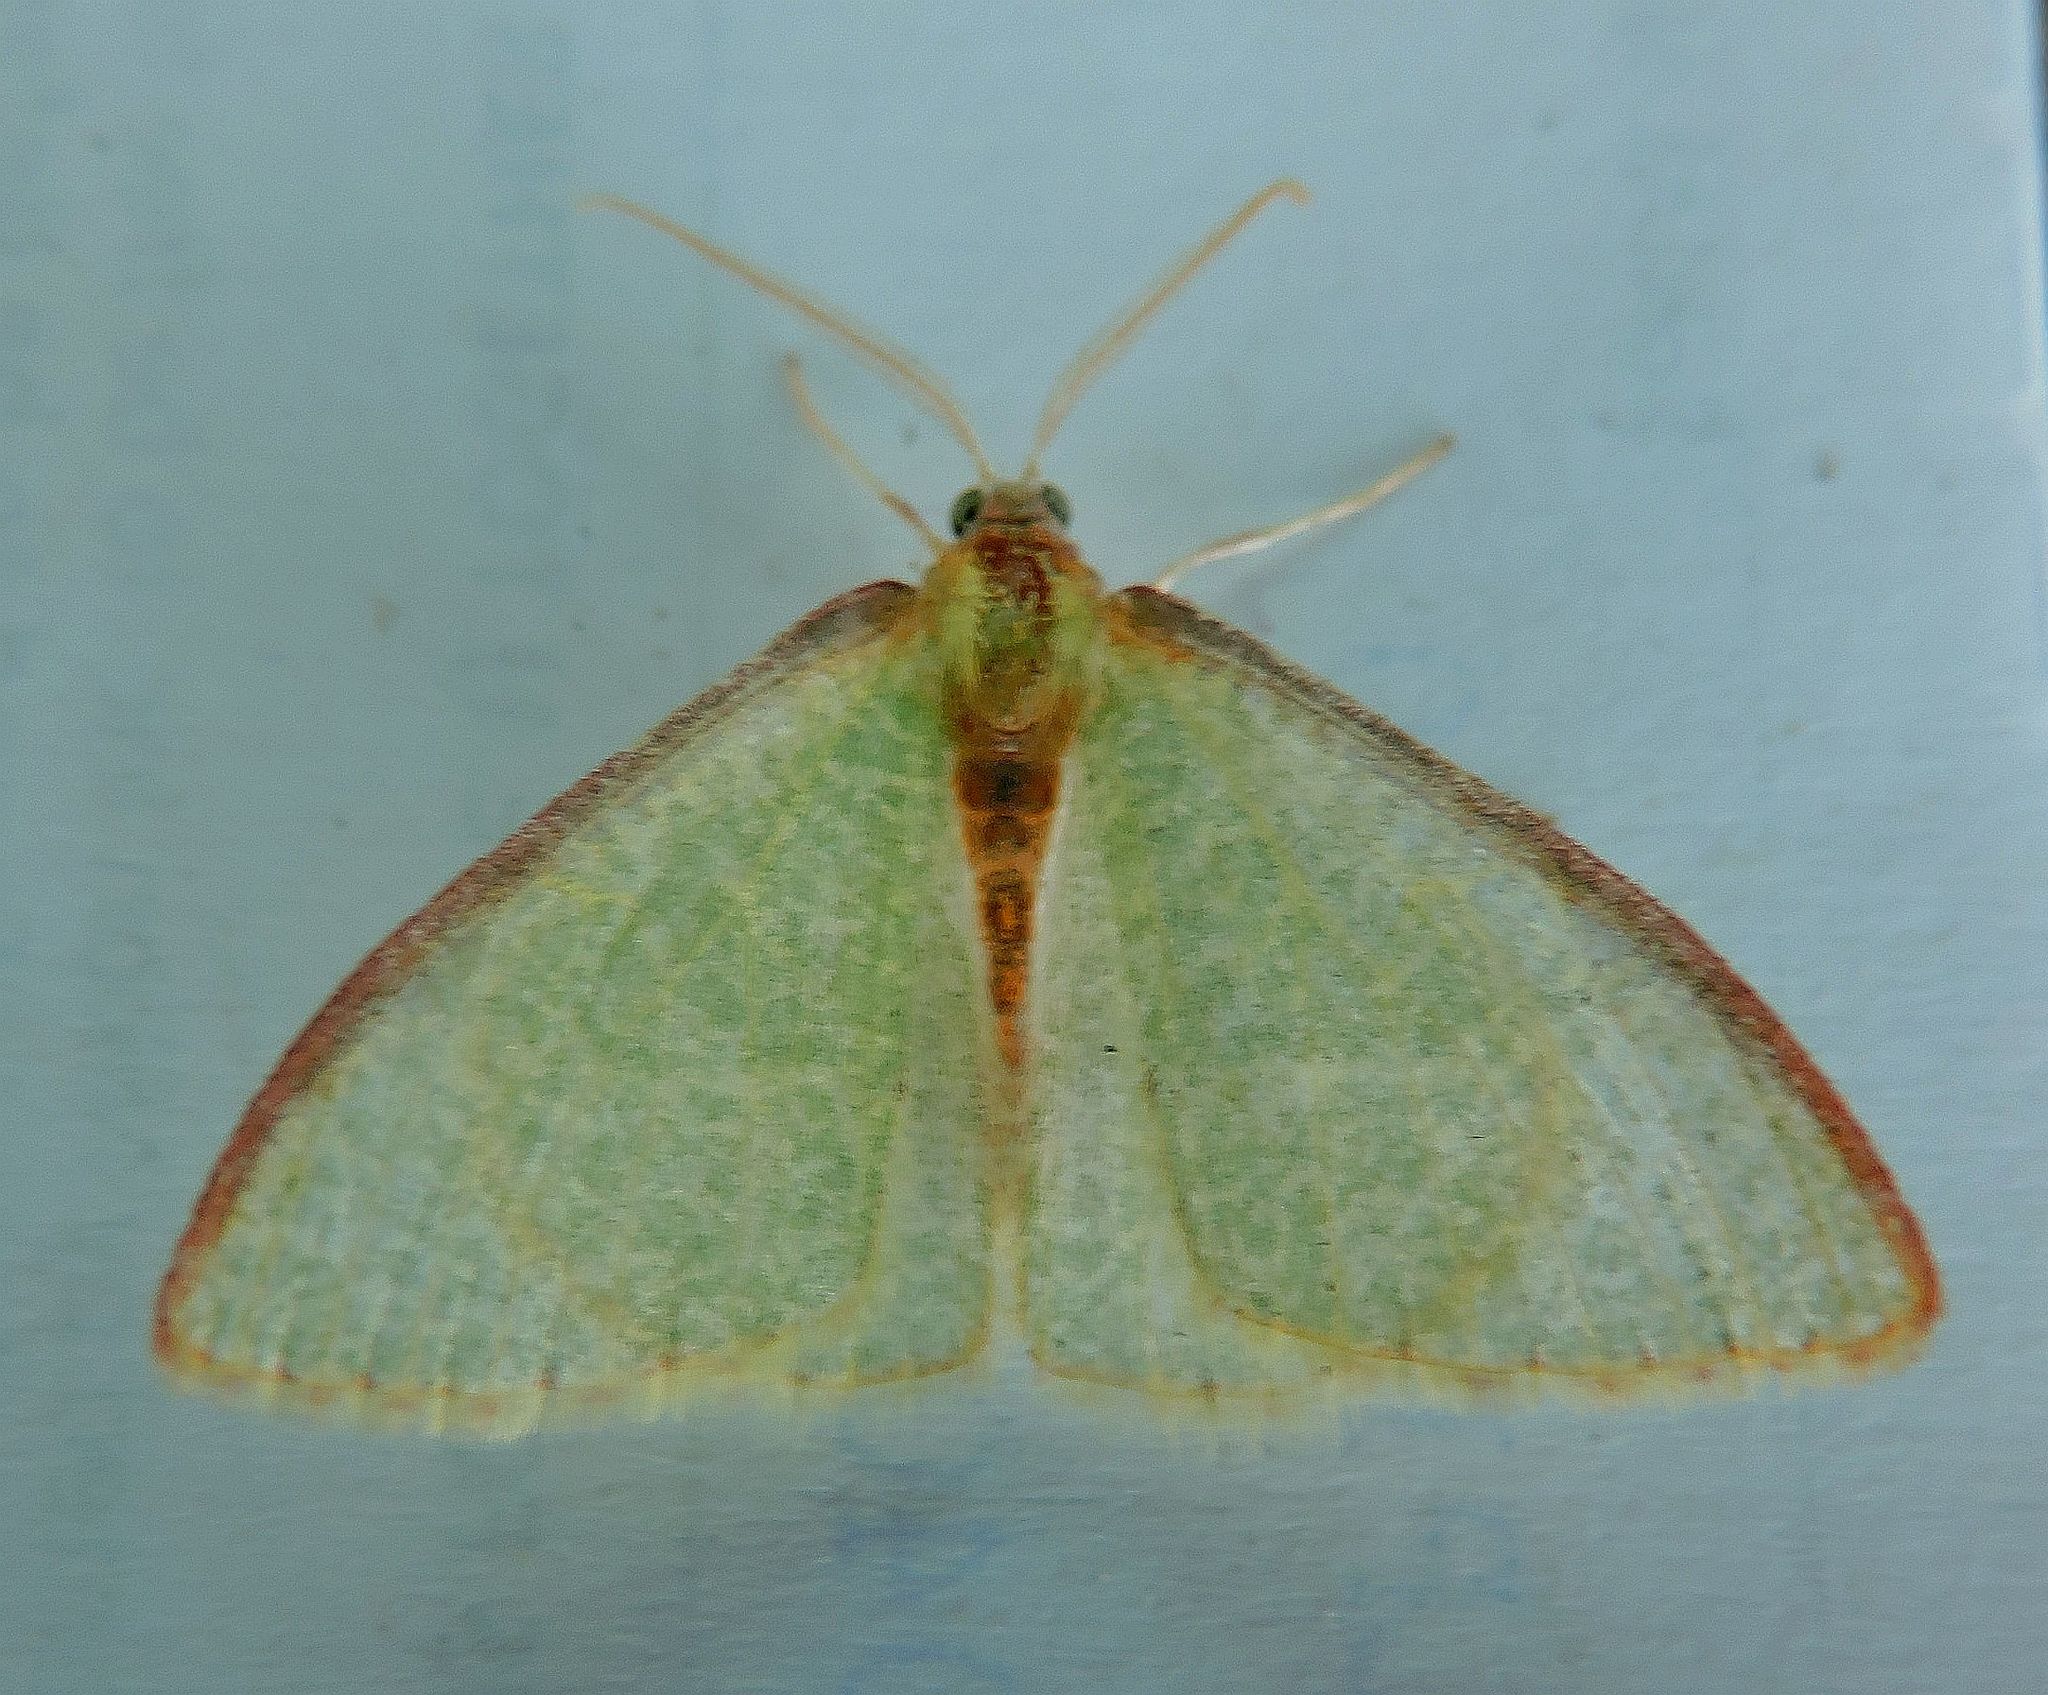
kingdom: Animalia
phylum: Arthropoda
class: Insecta
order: Lepidoptera
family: Geometridae
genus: Nemoria
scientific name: Nemoria daedalea
